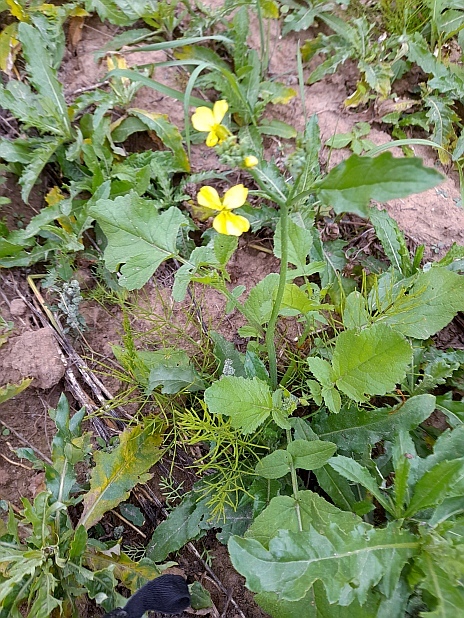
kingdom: Plantae
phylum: Tracheophyta
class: Magnoliopsida
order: Brassicales
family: Brassicaceae
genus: Raphanus
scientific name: Raphanus raphanistrum
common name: Wild radish
